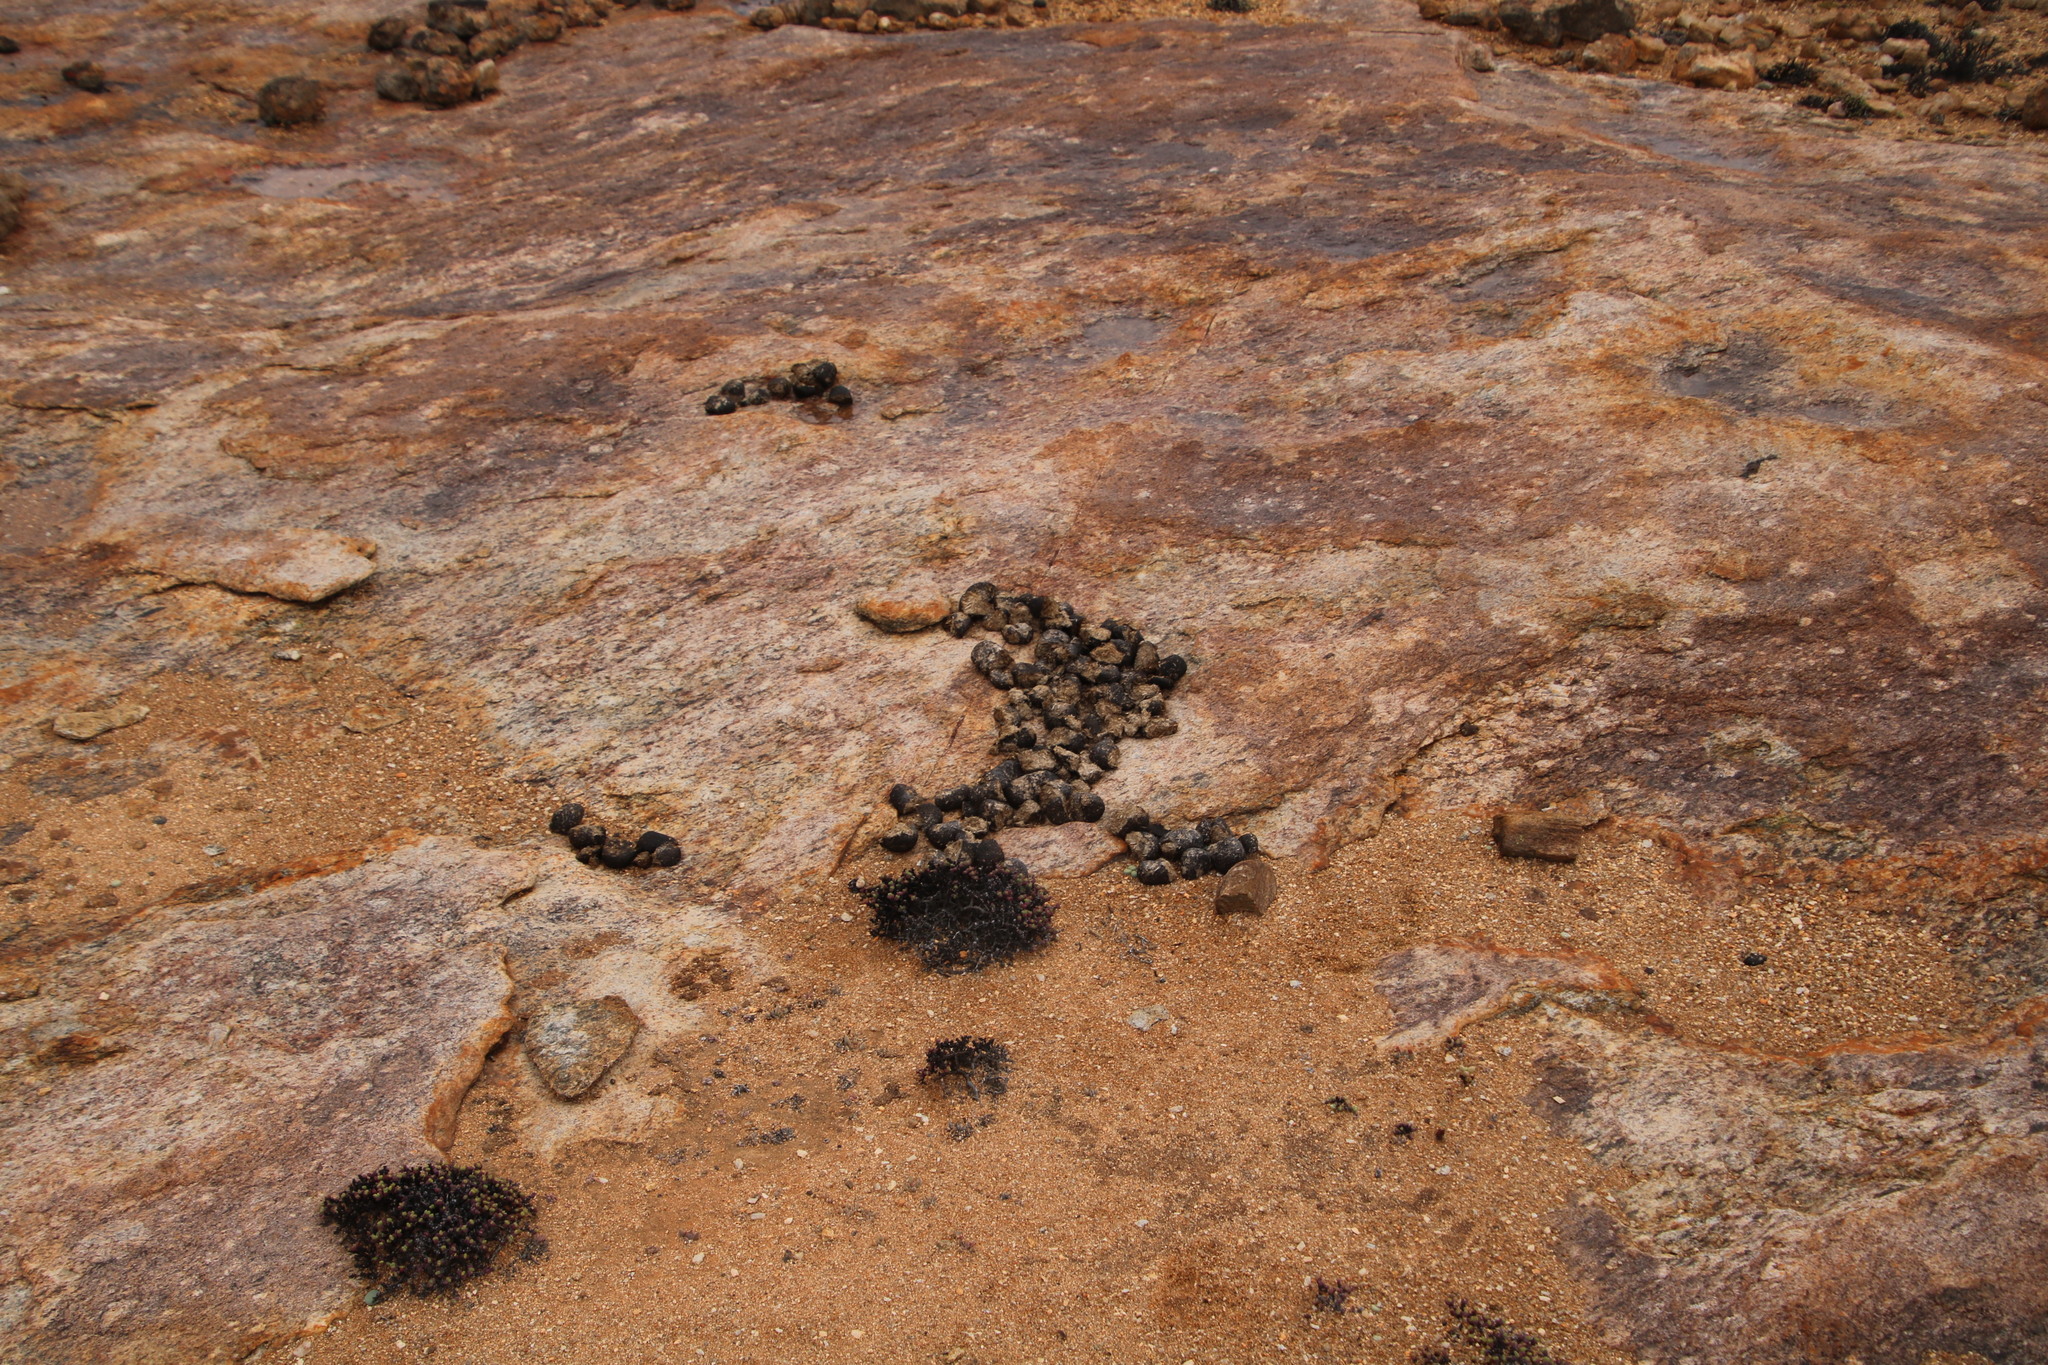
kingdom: Animalia
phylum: Chordata
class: Mammalia
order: Perissodactyla
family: Equidae
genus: Equus
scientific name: Equus hartmannae
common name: Hartmann's mountain zebra
